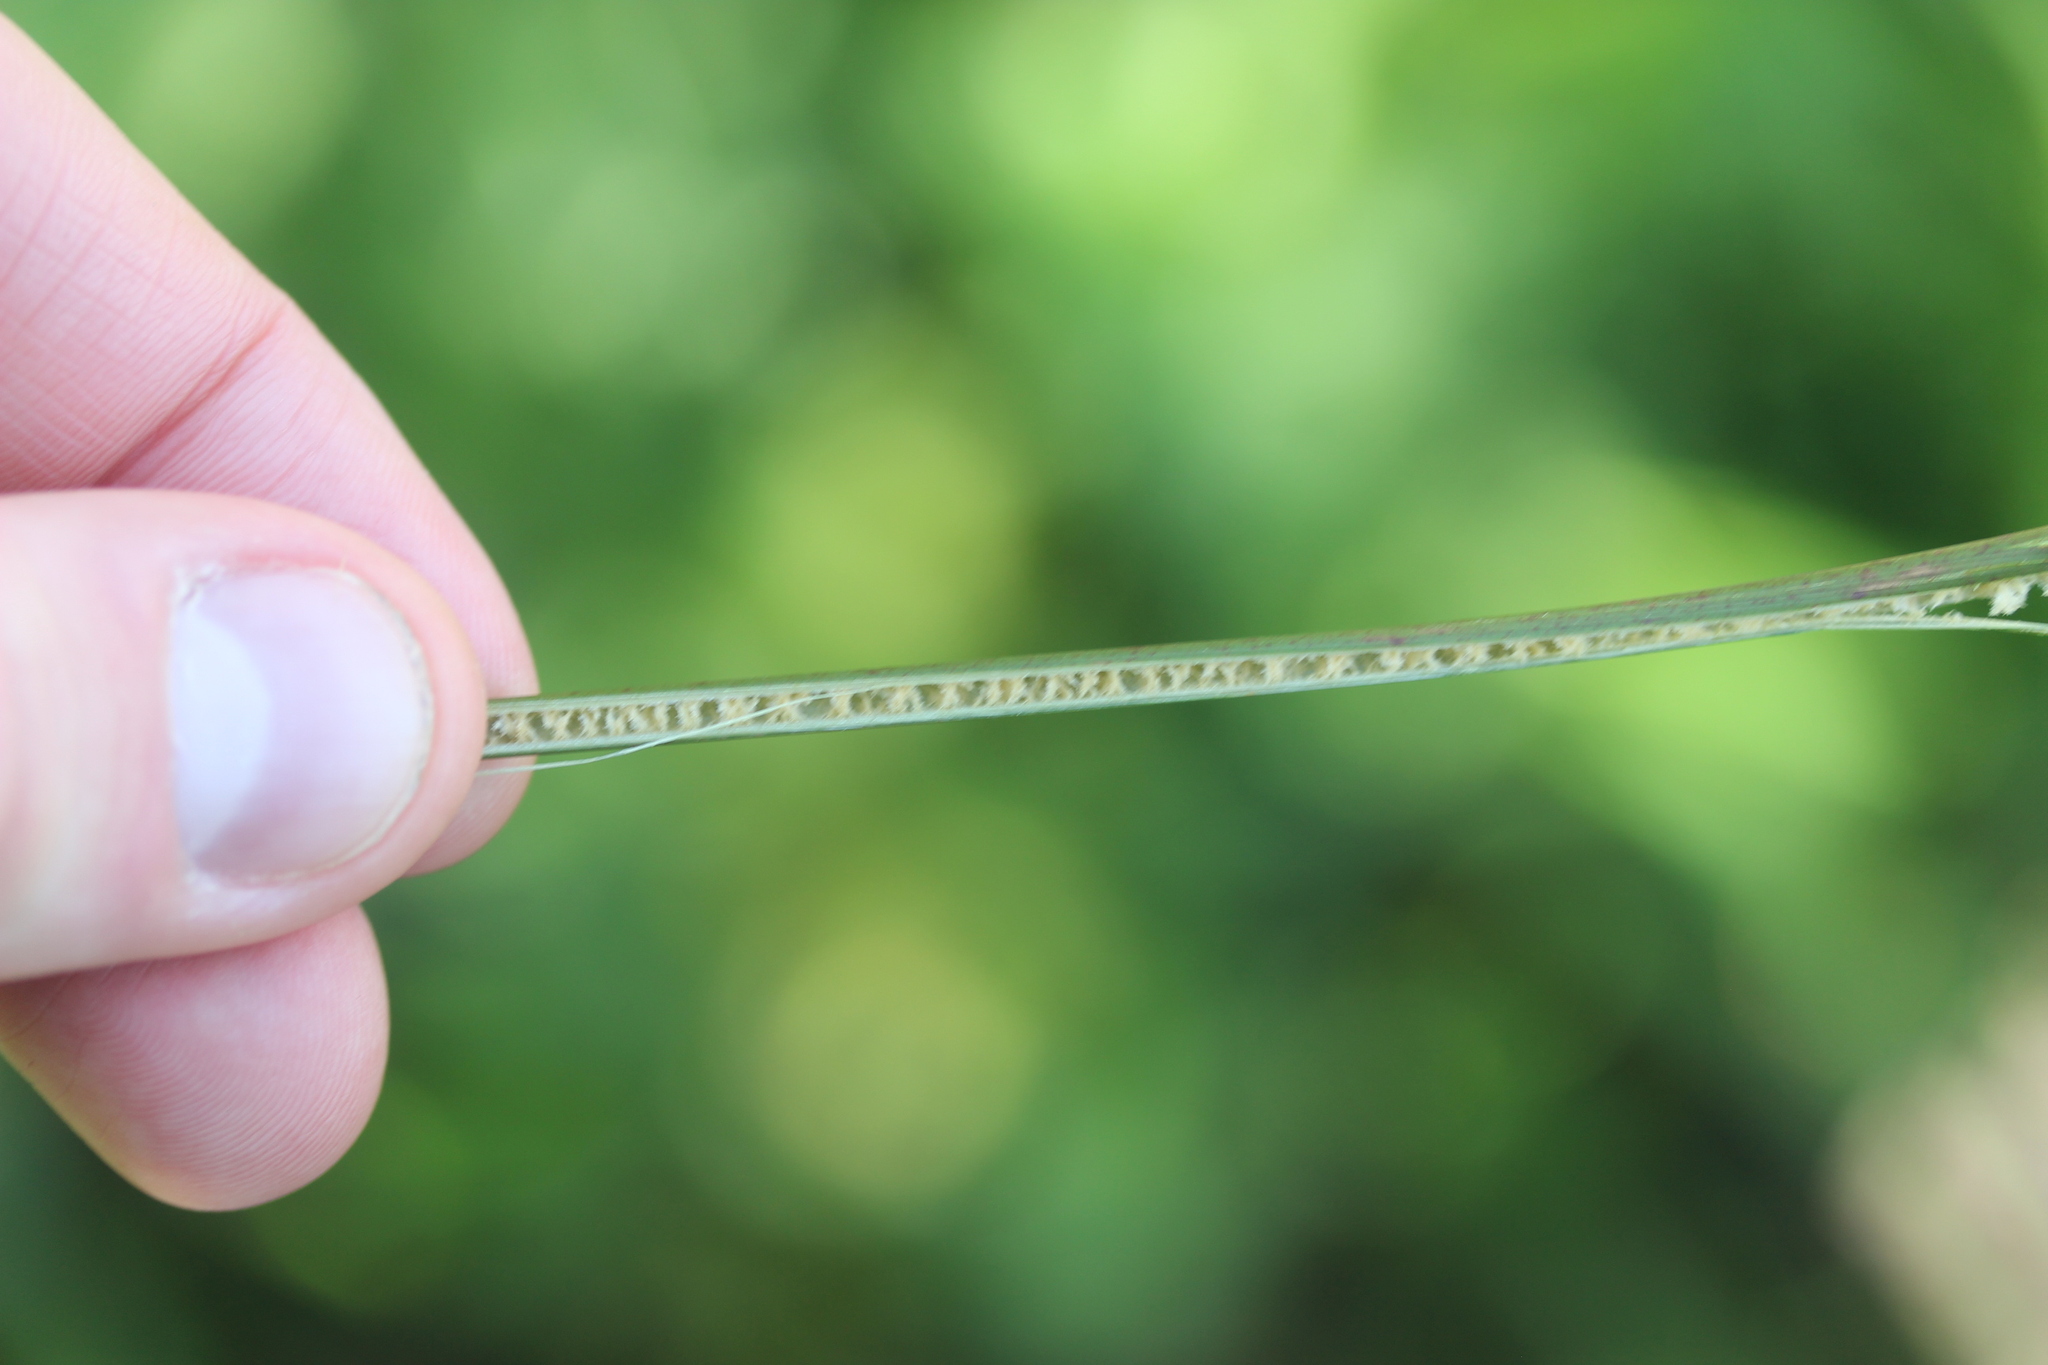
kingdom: Plantae
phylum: Tracheophyta
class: Liliopsida
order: Poales
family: Juncaceae
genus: Juncus
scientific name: Juncus sarophorus
